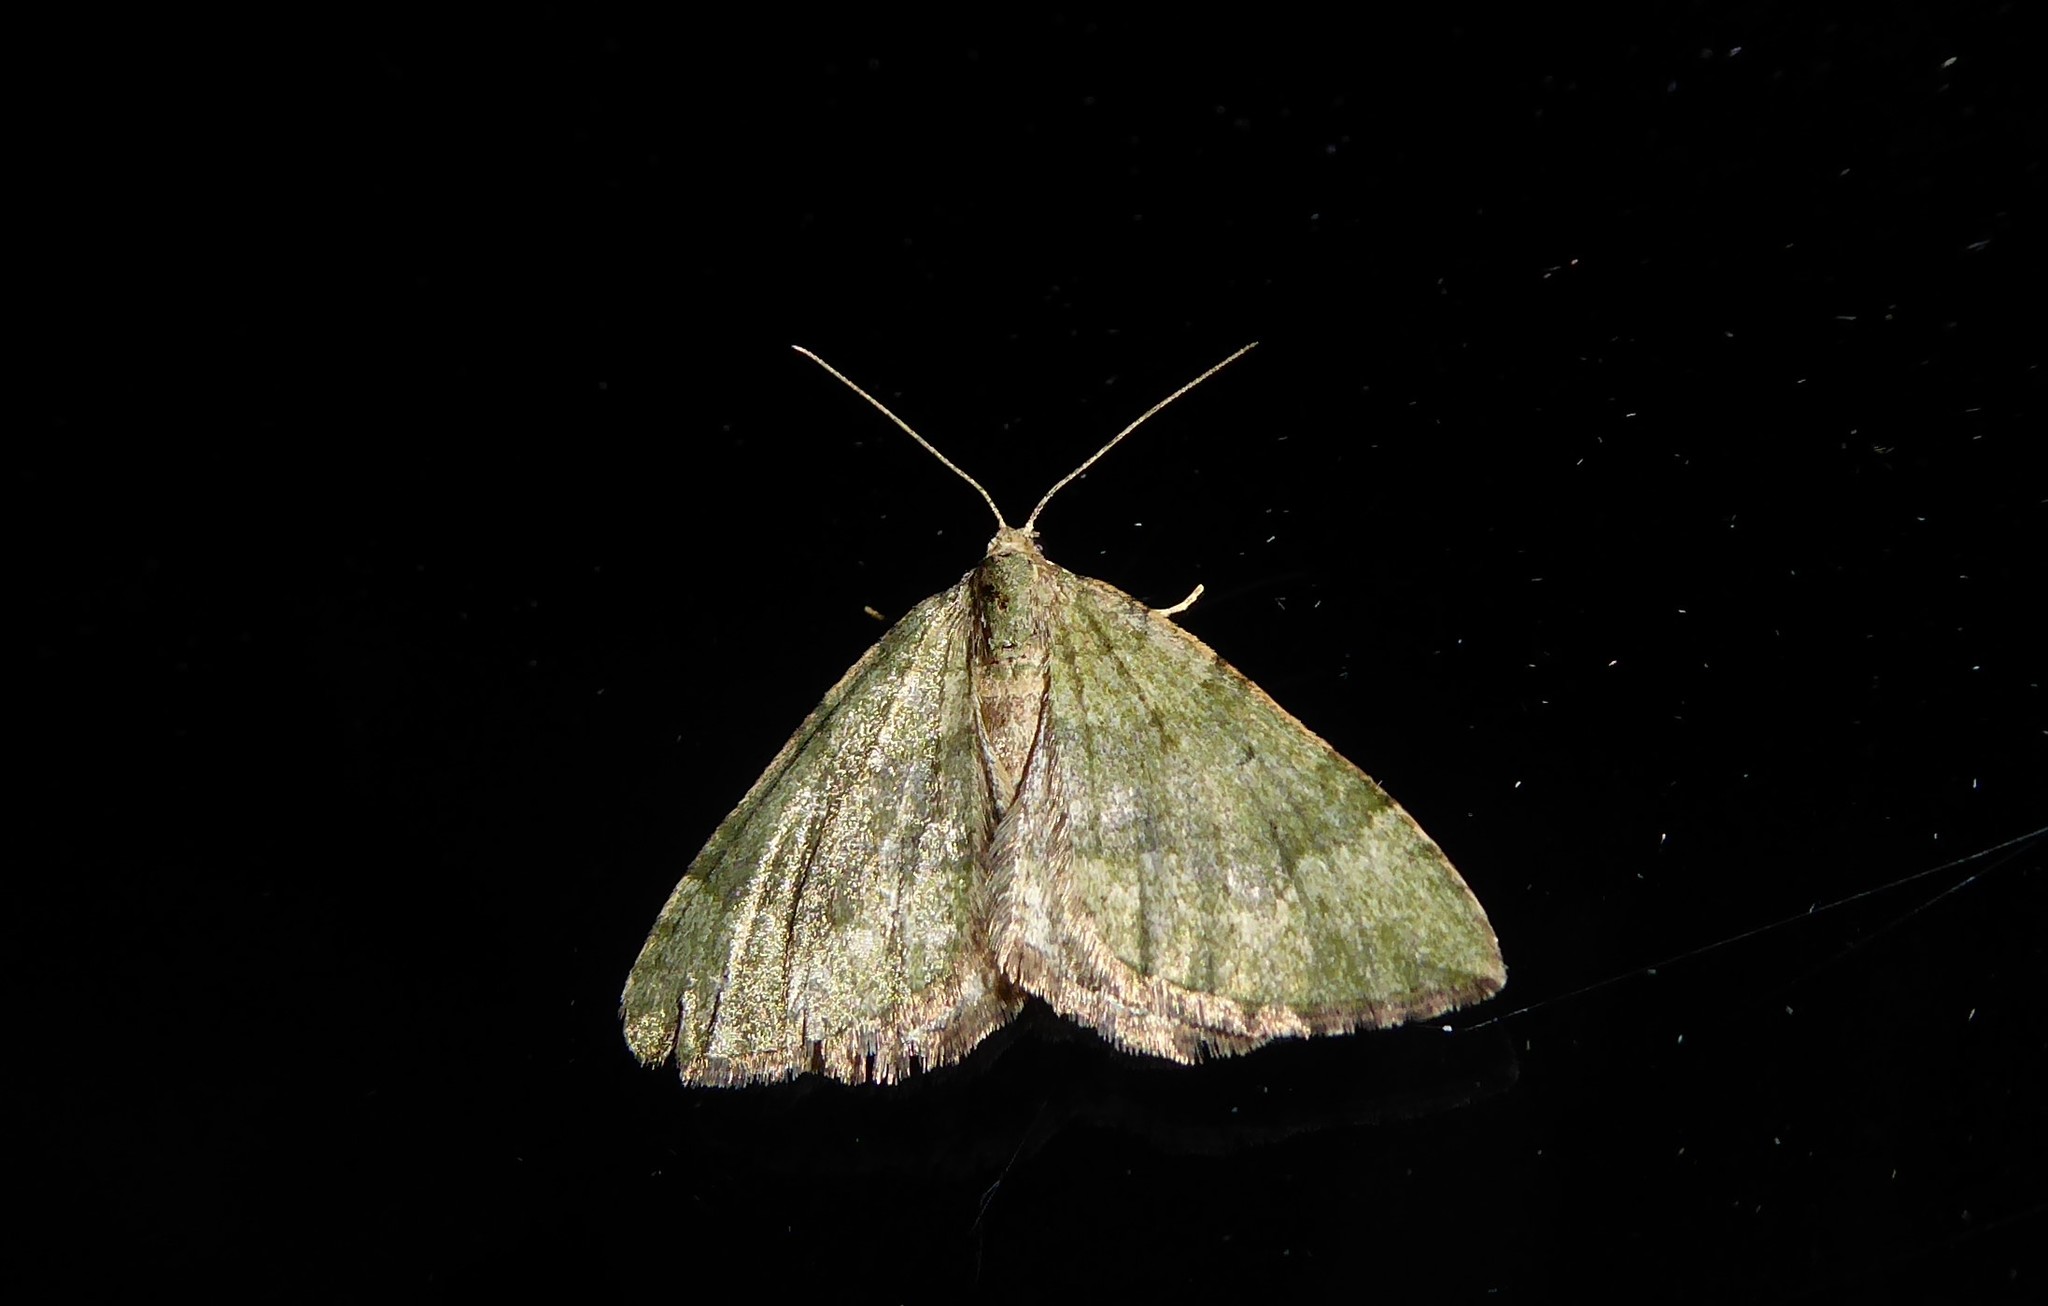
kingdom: Animalia
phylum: Arthropoda
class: Insecta
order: Lepidoptera
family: Geometridae
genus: Epyaxa
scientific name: Epyaxa rosearia
